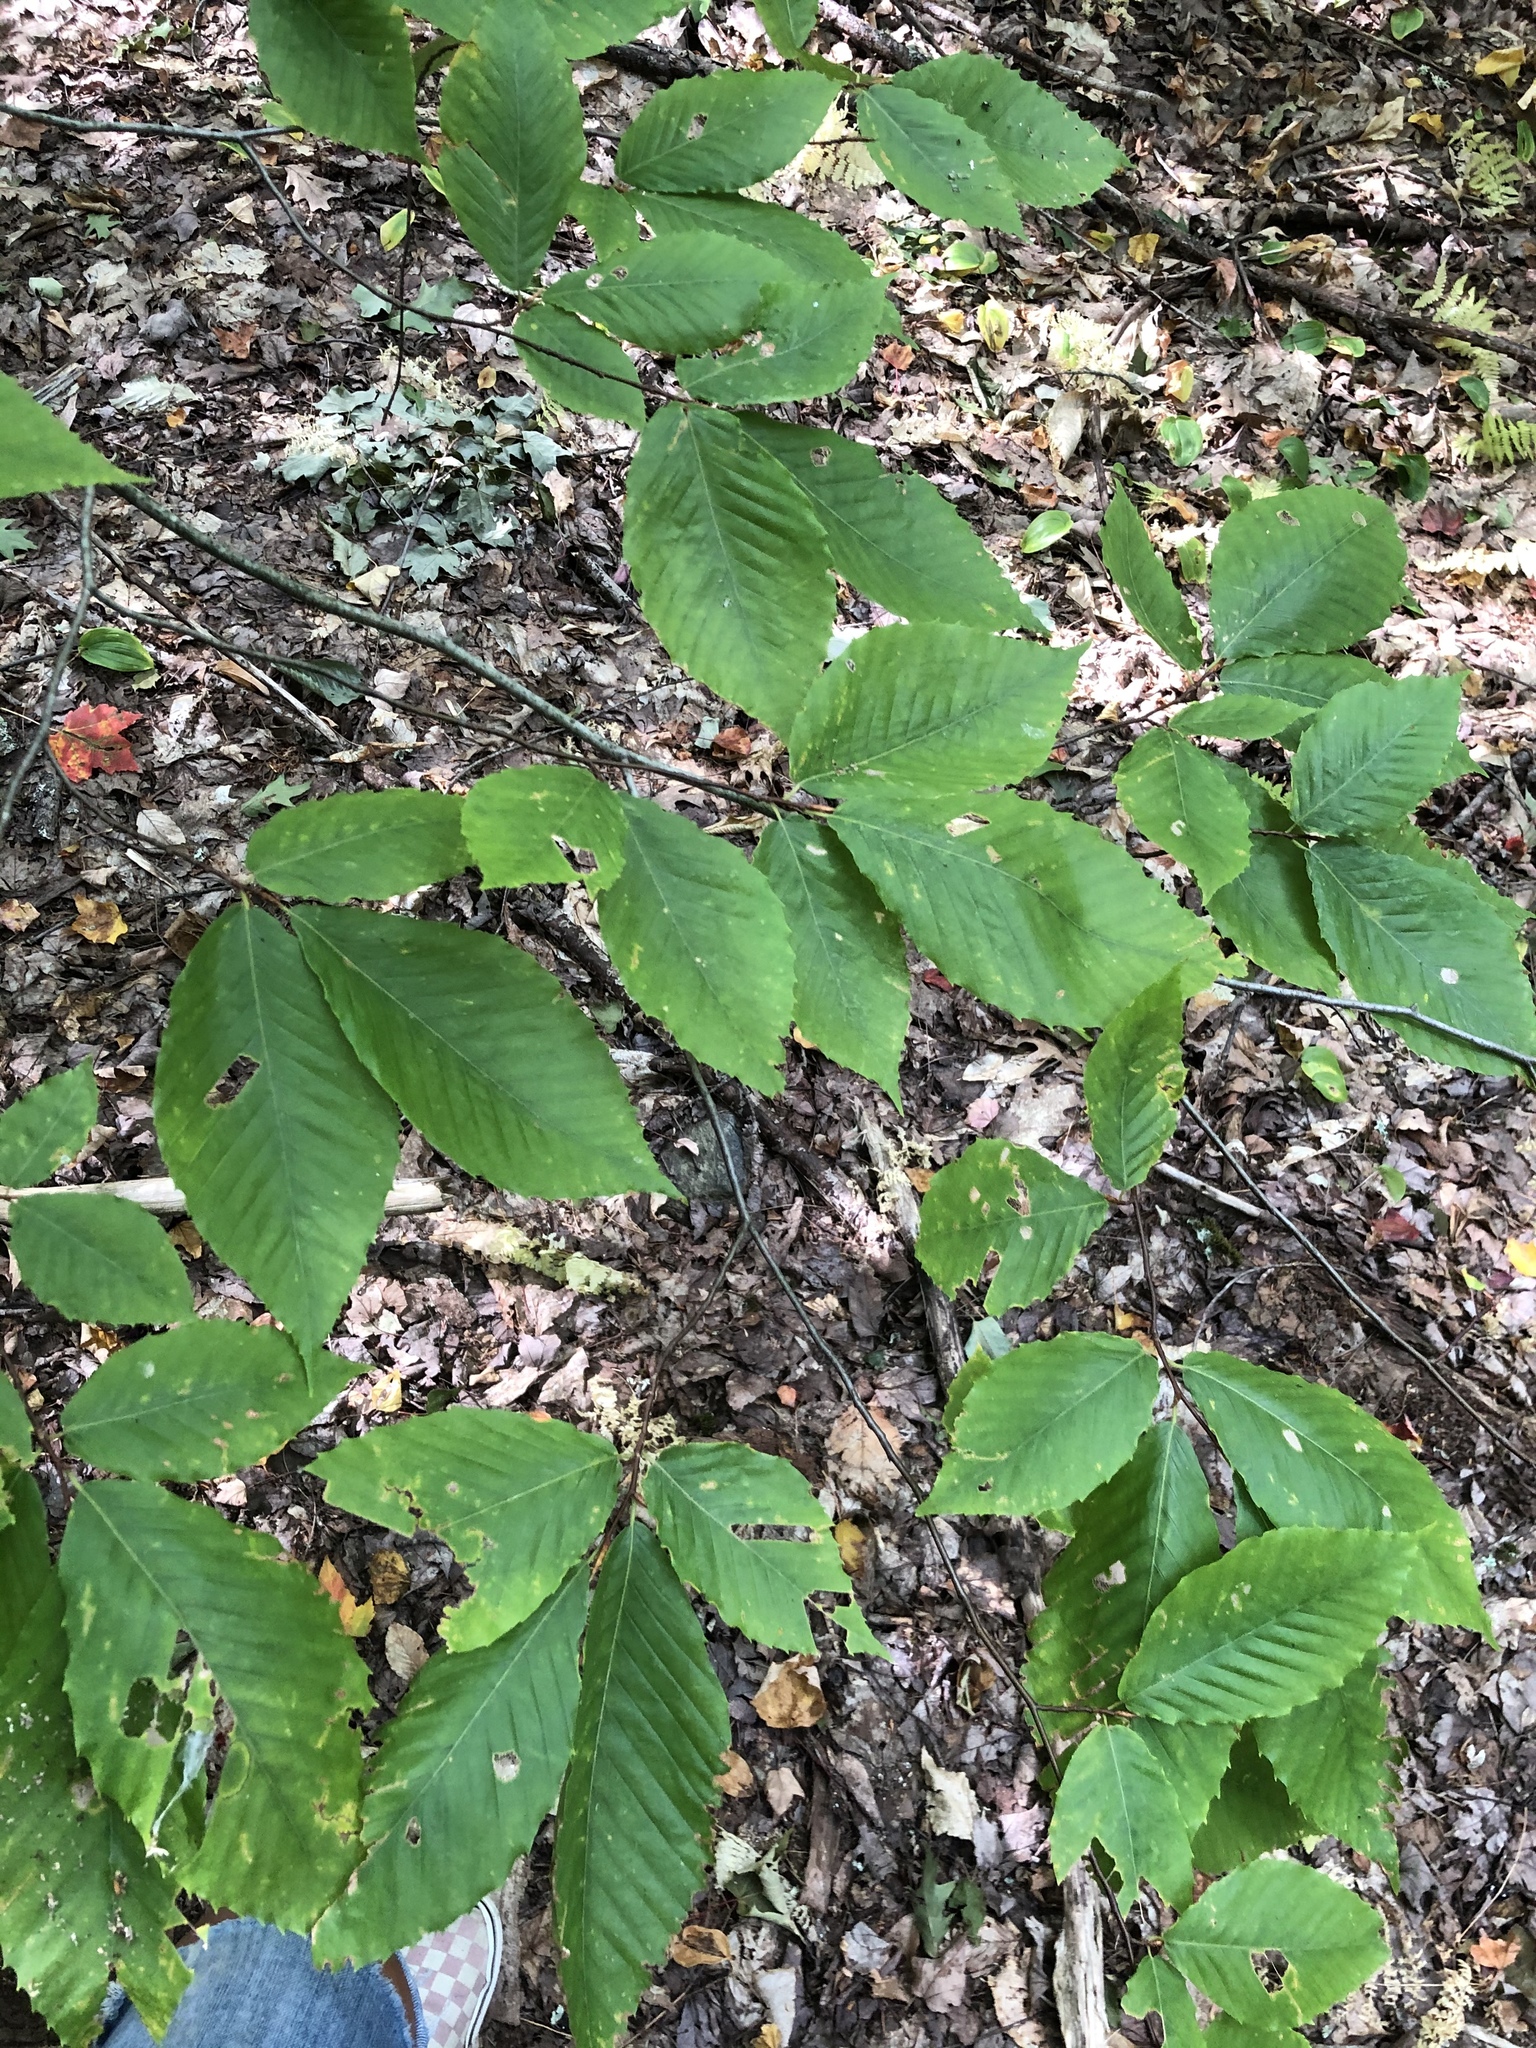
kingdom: Plantae
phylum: Tracheophyta
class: Magnoliopsida
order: Fagales
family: Fagaceae
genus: Fagus
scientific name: Fagus grandifolia
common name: American beech
